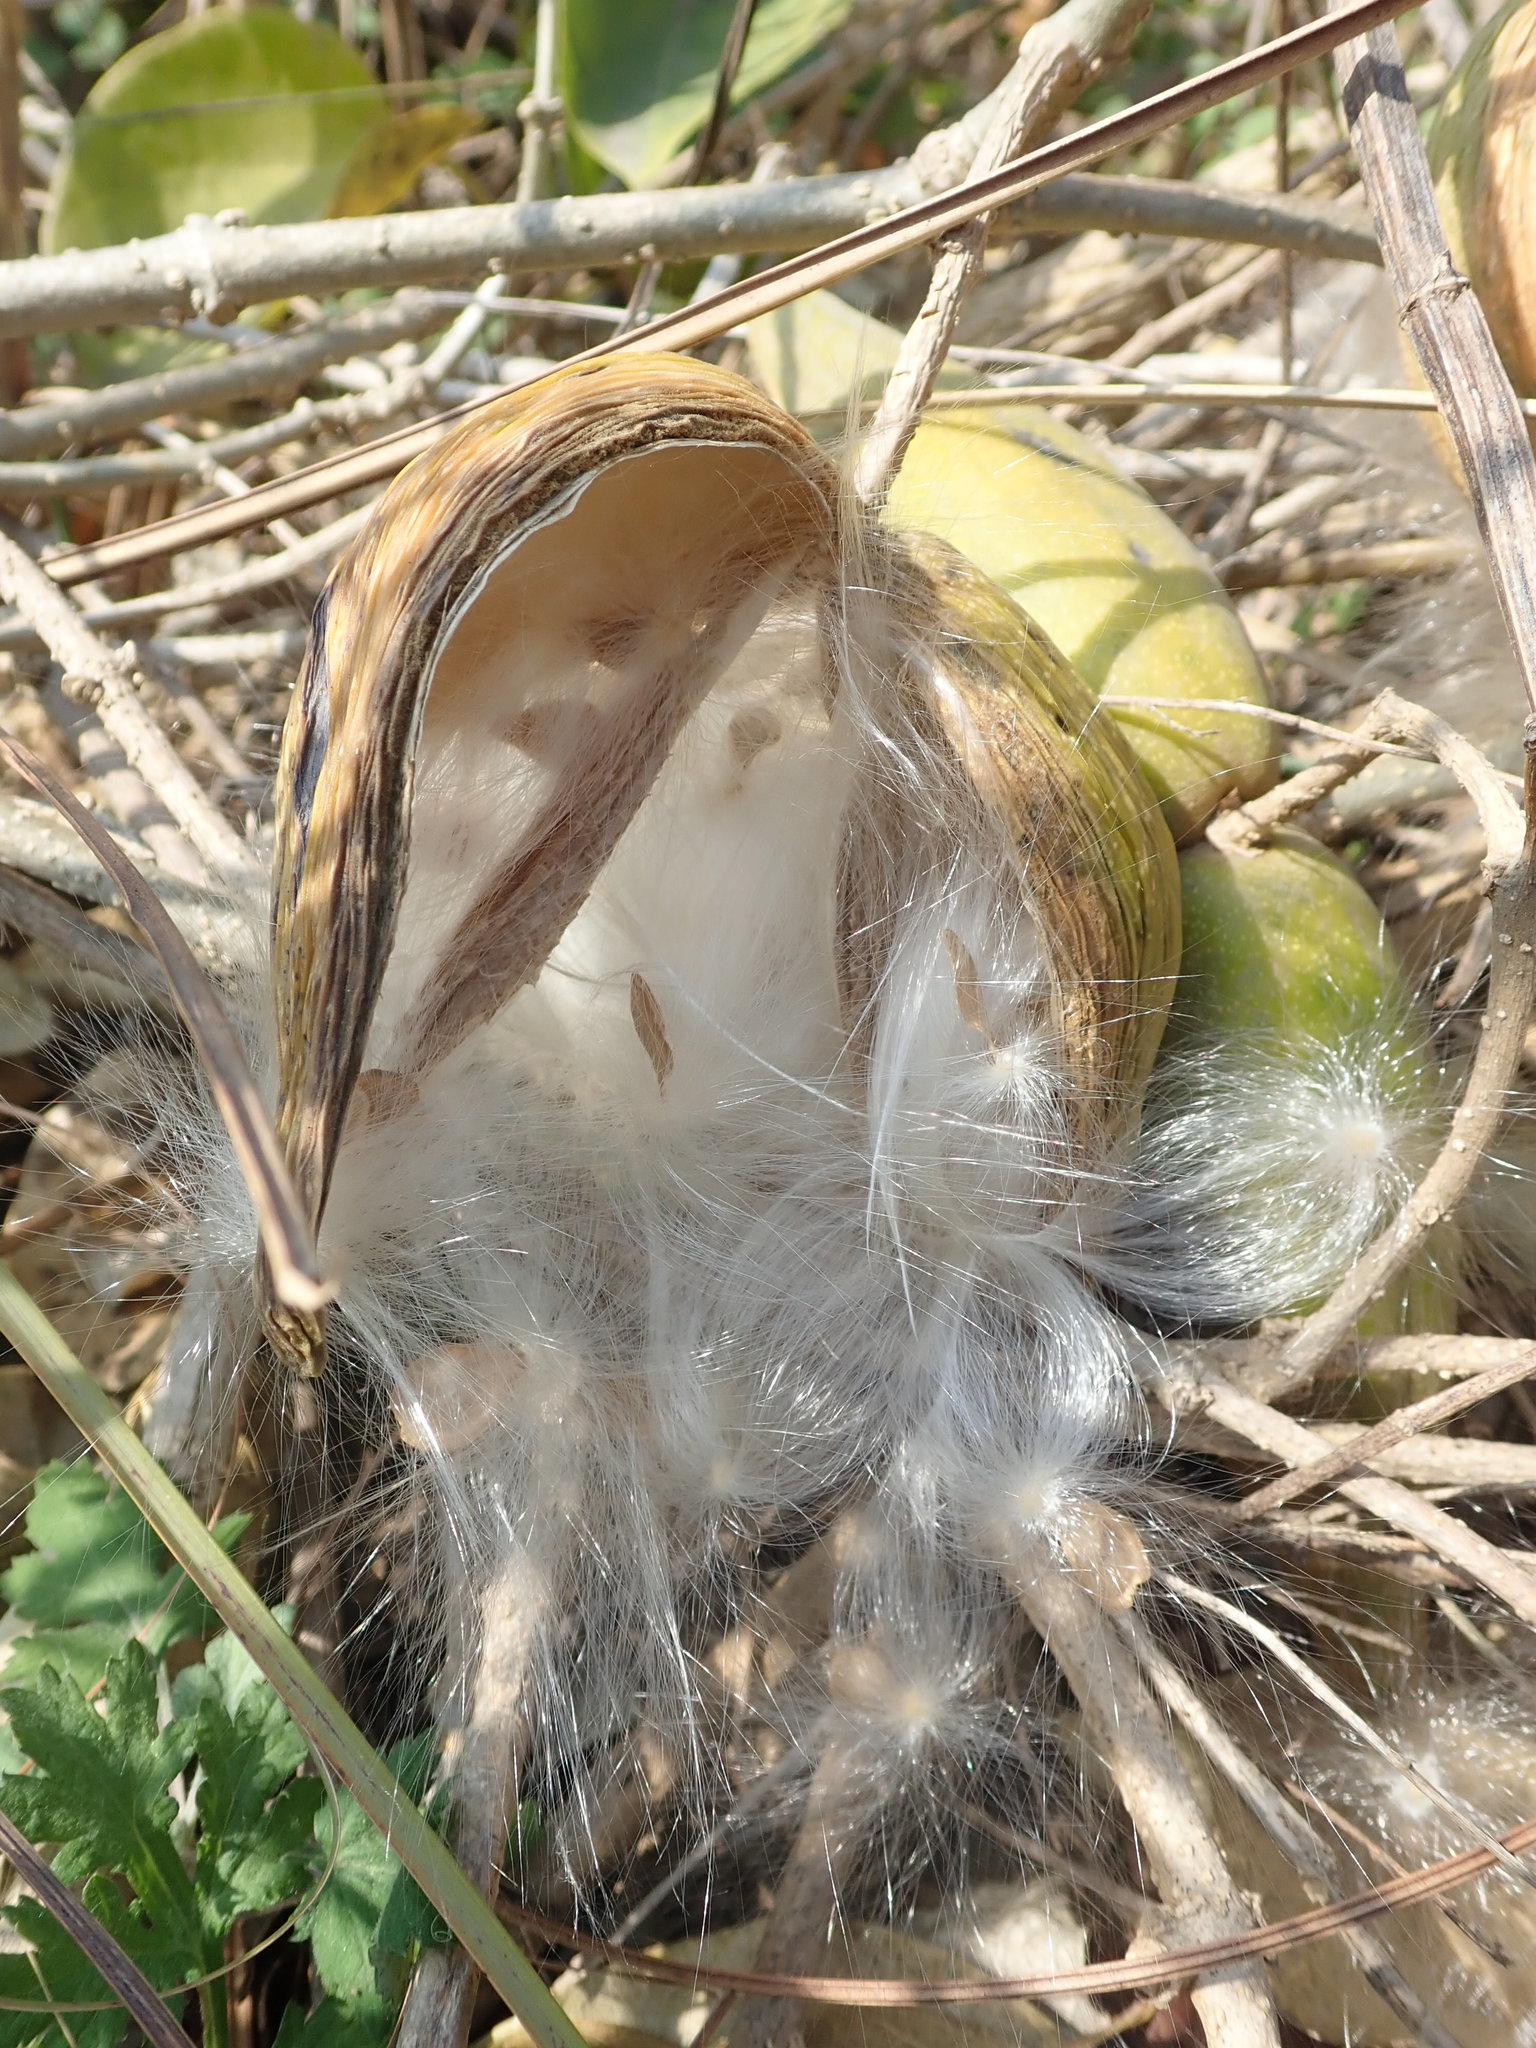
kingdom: Plantae
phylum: Tracheophyta
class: Magnoliopsida
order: Gentianales
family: Apocynaceae
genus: Stephanotis
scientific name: Stephanotis volubilis
